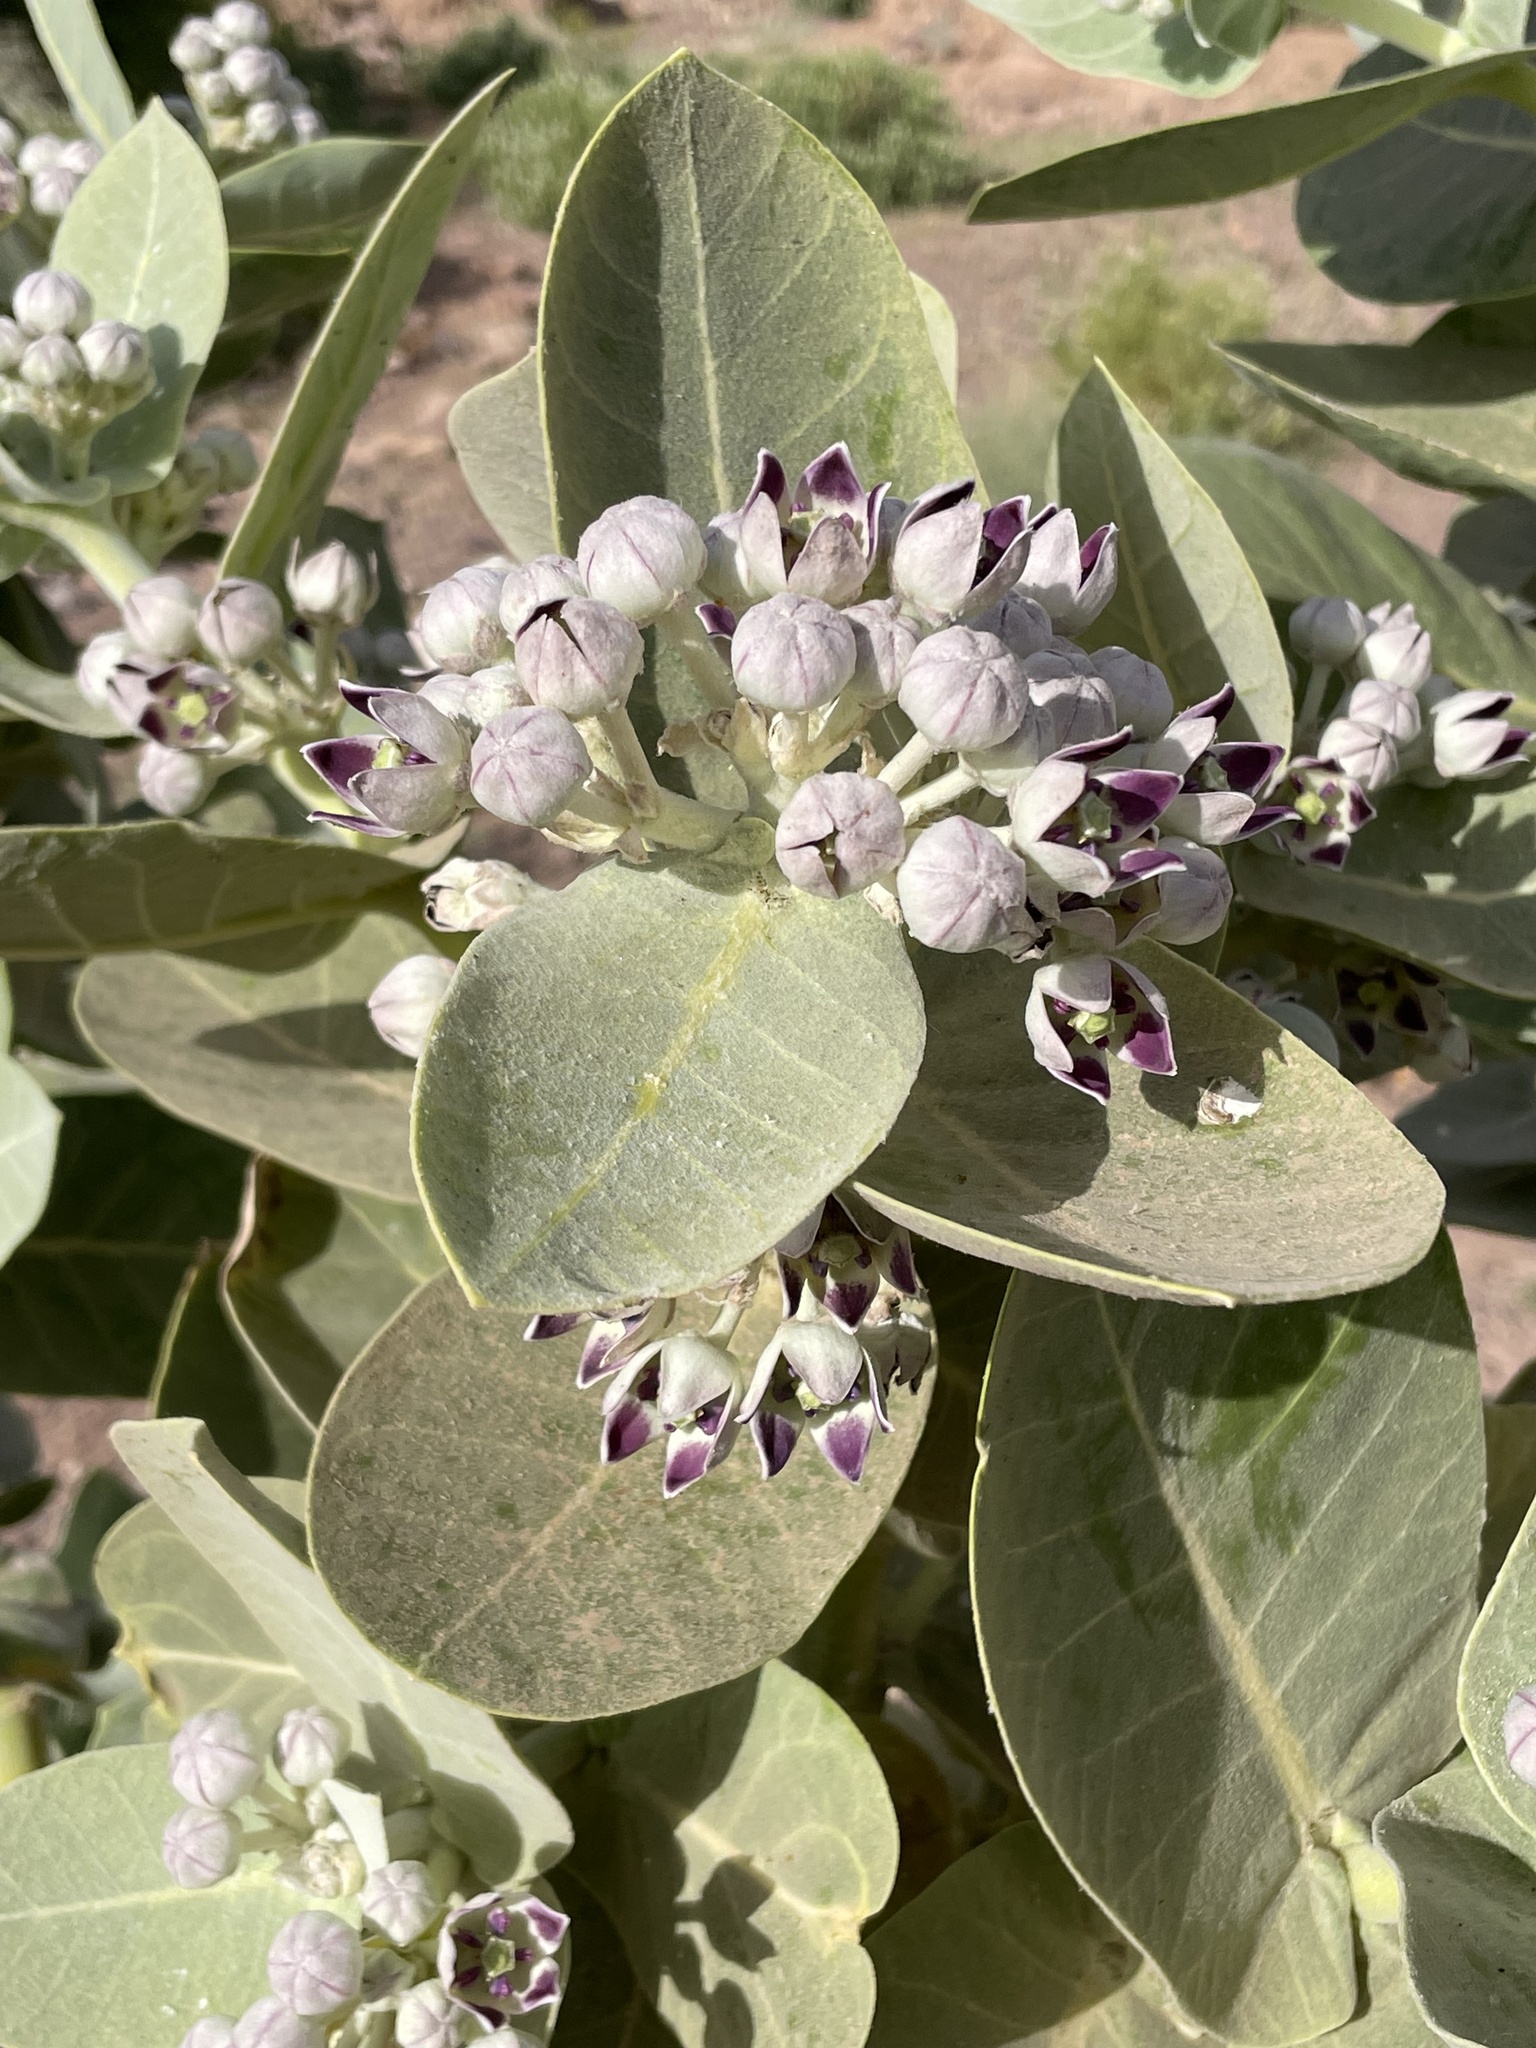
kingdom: Plantae
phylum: Tracheophyta
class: Magnoliopsida
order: Gentianales
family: Apocynaceae
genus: Calotropis
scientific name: Calotropis procera
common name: Roostertree
